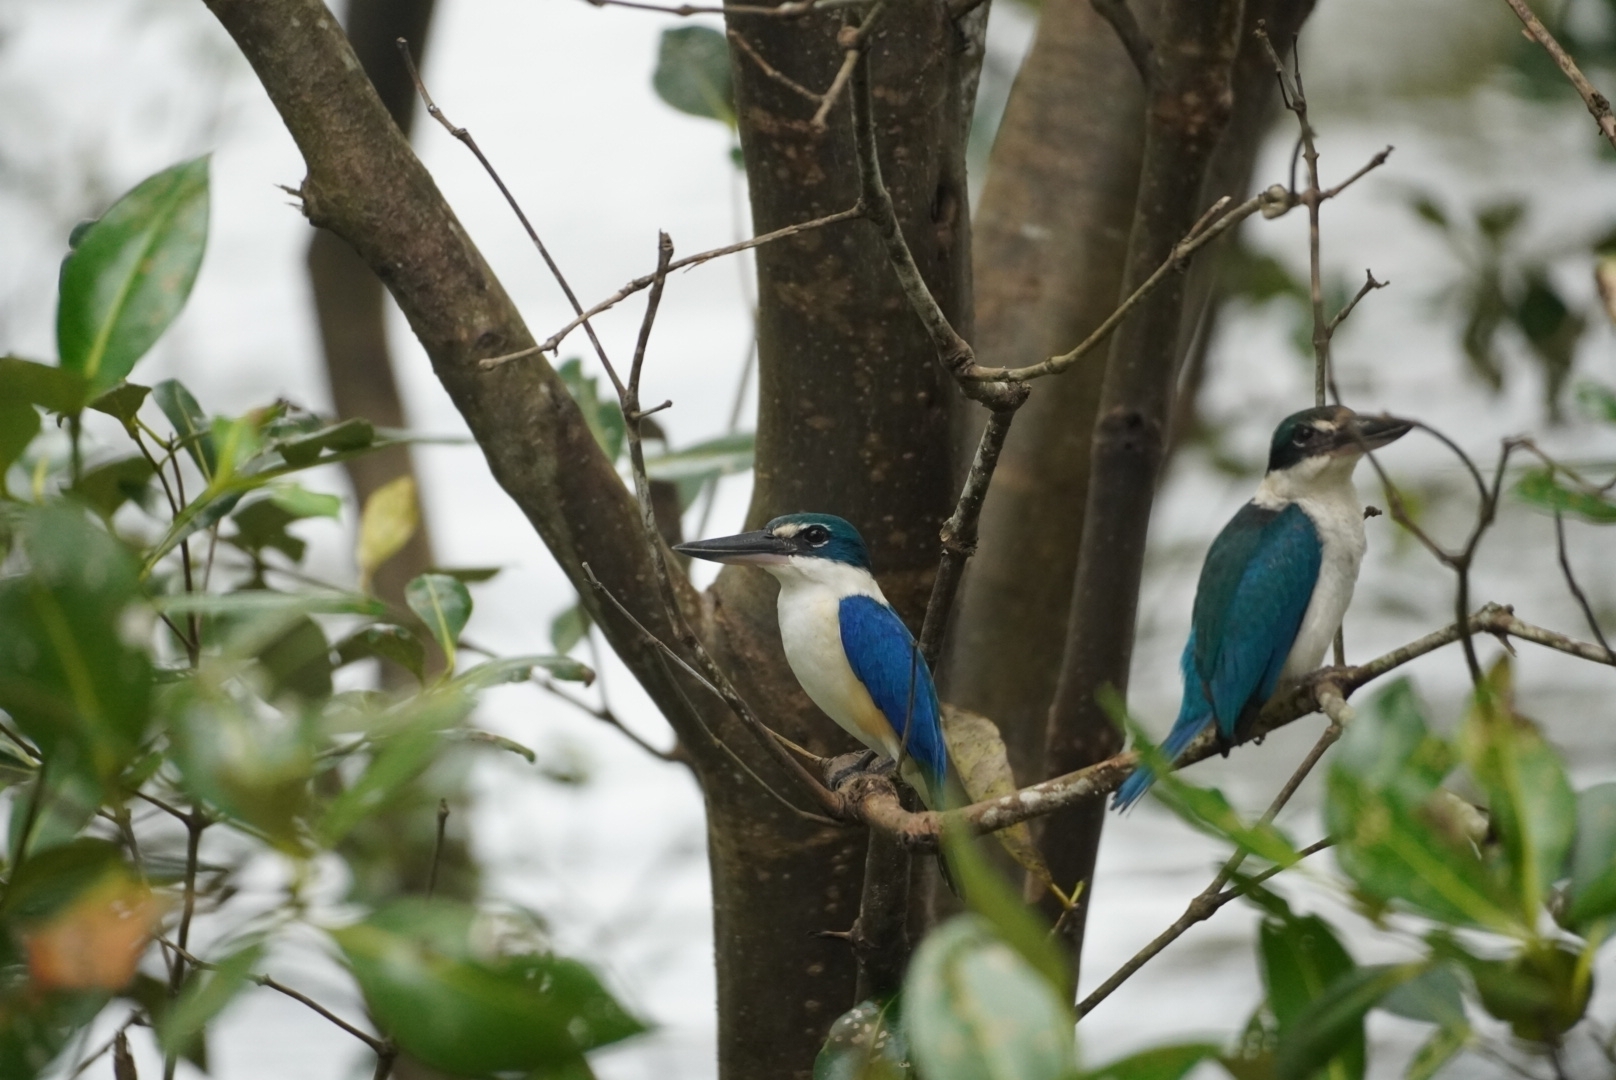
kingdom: Animalia
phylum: Chordata
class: Aves
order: Coraciiformes
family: Alcedinidae
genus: Todiramphus
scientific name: Todiramphus chloris
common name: Collared kingfisher
